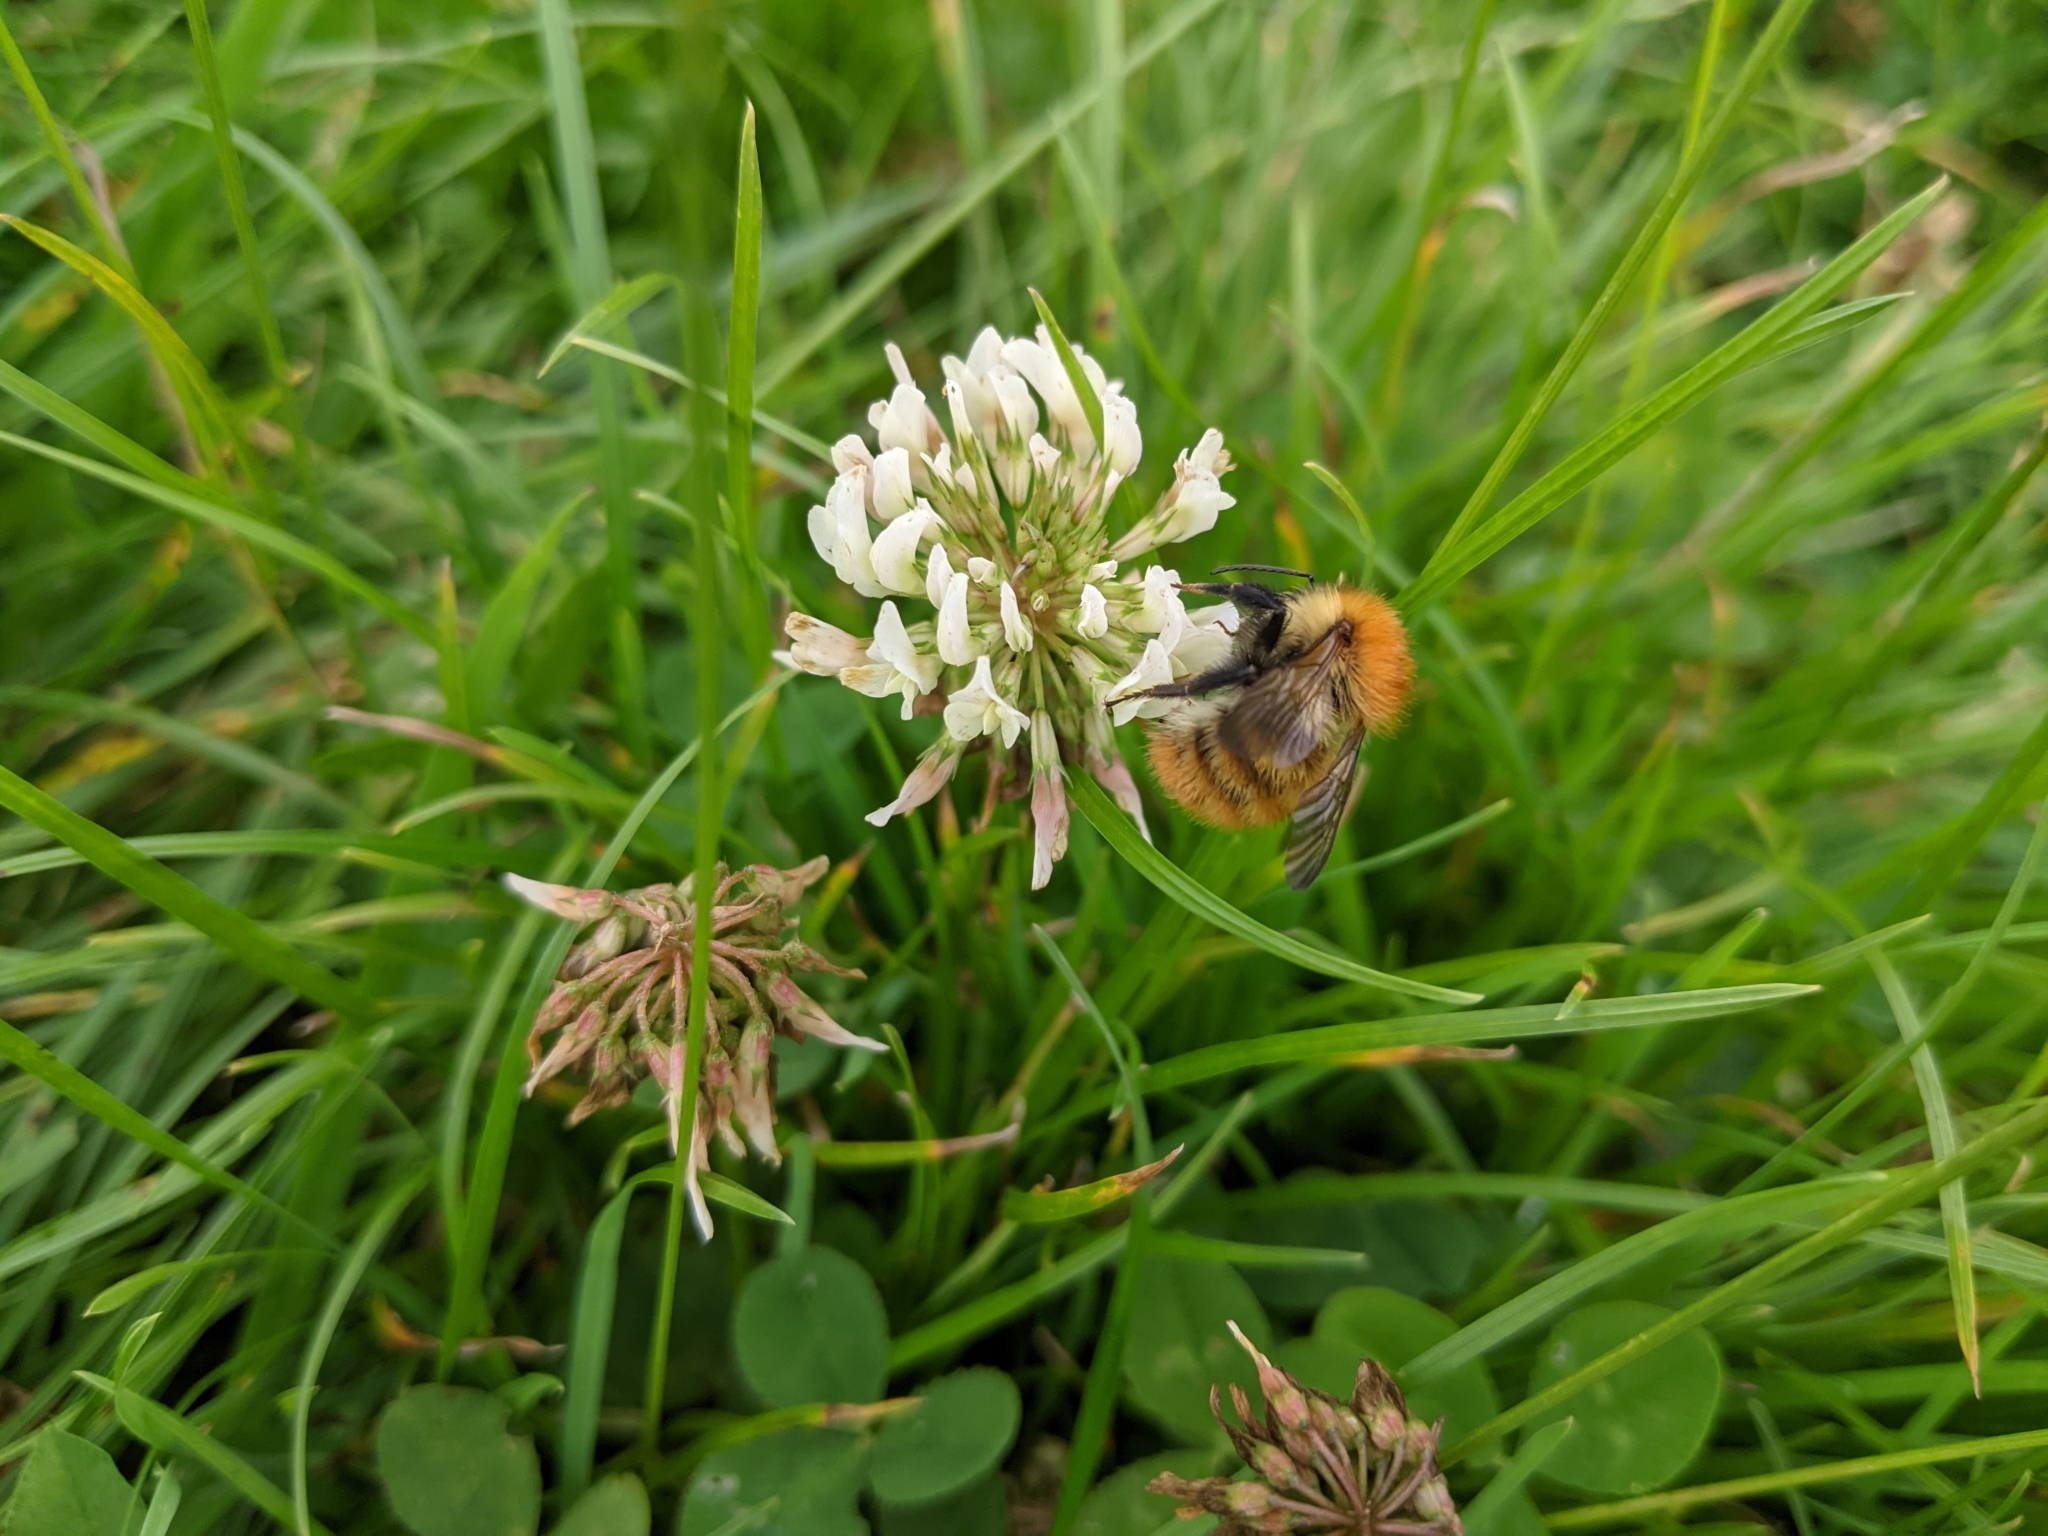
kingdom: Animalia
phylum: Arthropoda
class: Insecta
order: Hymenoptera
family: Apidae
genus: Bombus
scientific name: Bombus pascuorum
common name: Common carder bee
